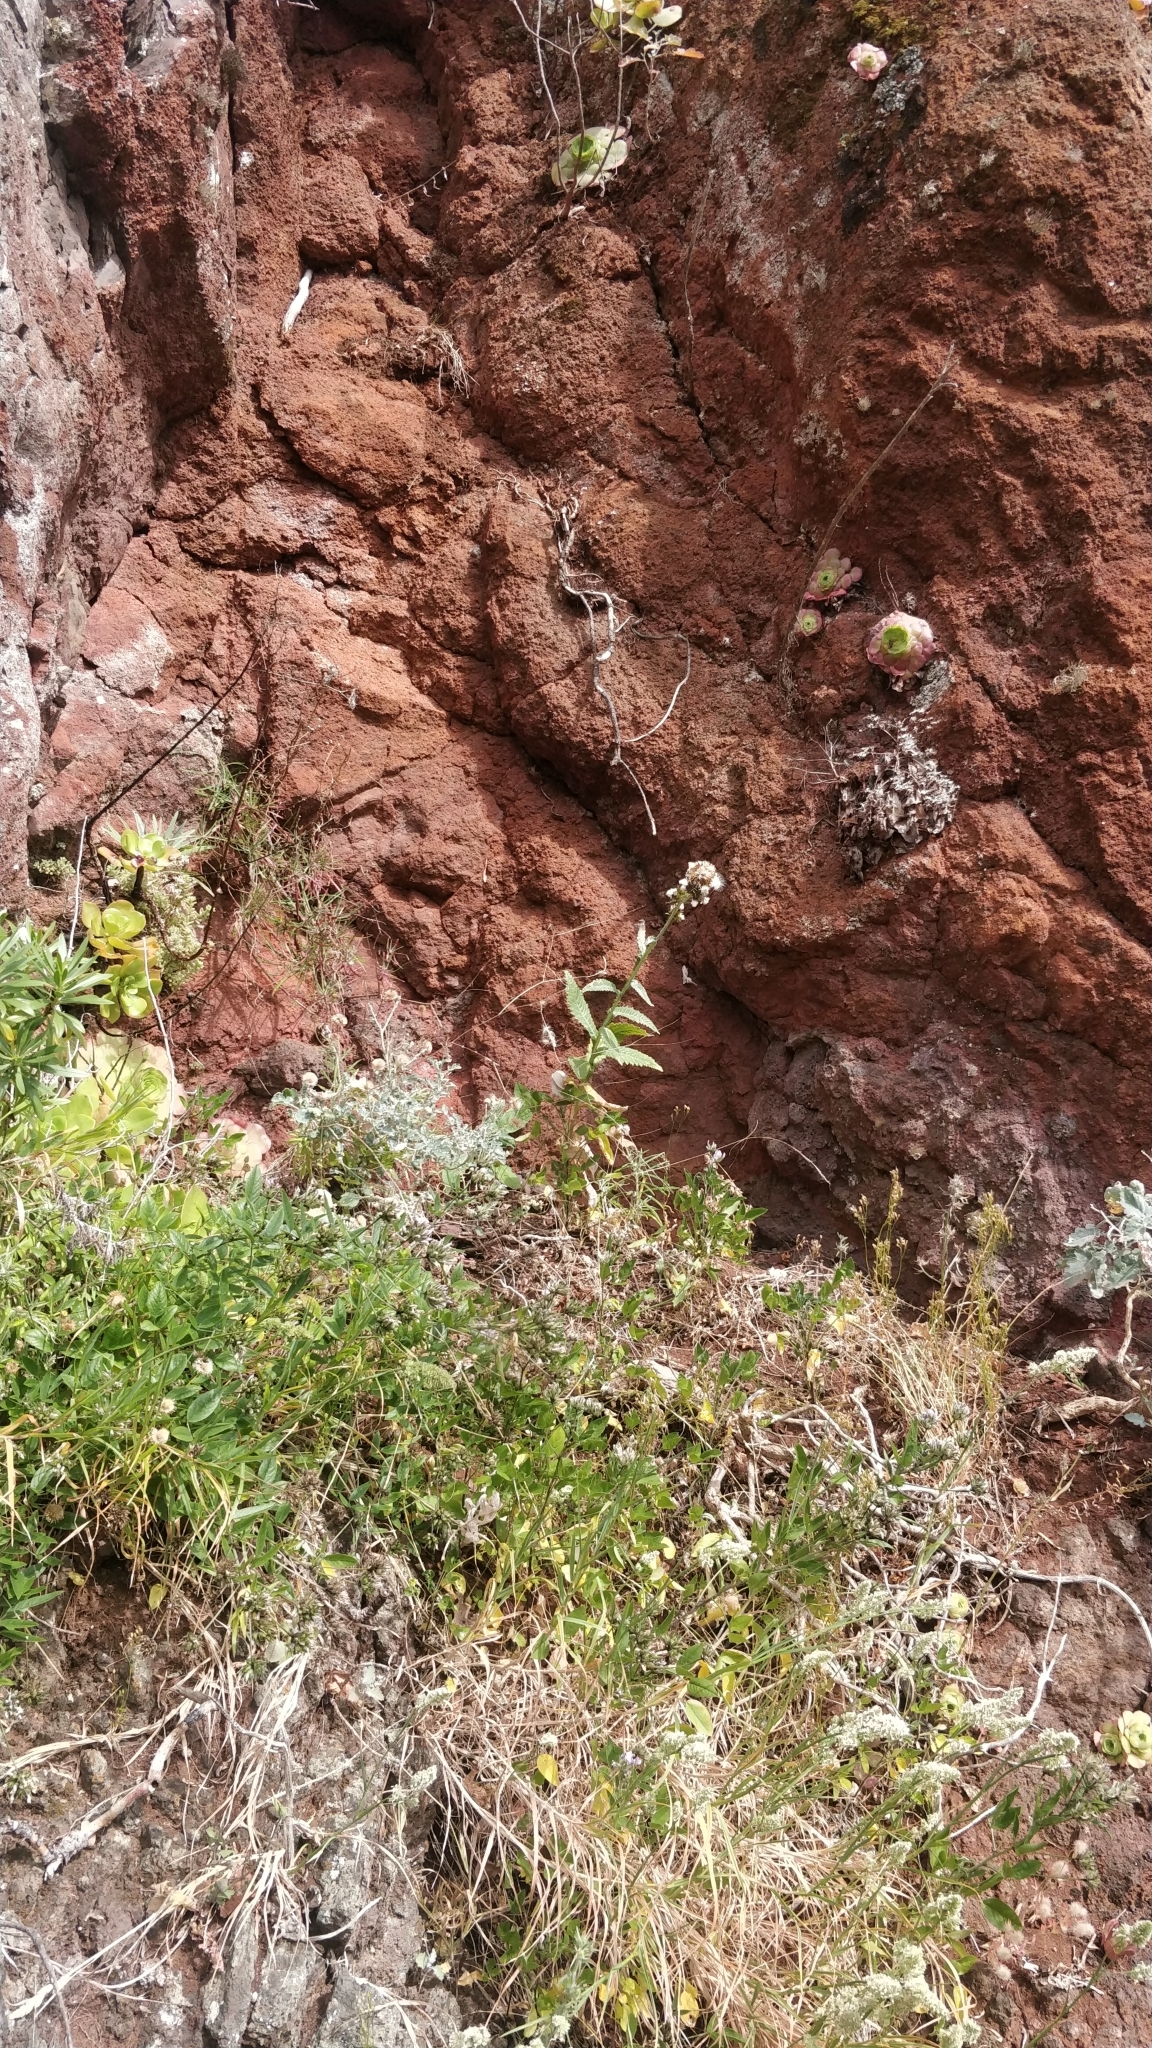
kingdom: Plantae
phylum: Tracheophyta
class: Magnoliopsida
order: Asterales
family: Asteraceae
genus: Carduus
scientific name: Carduus squarrosus
